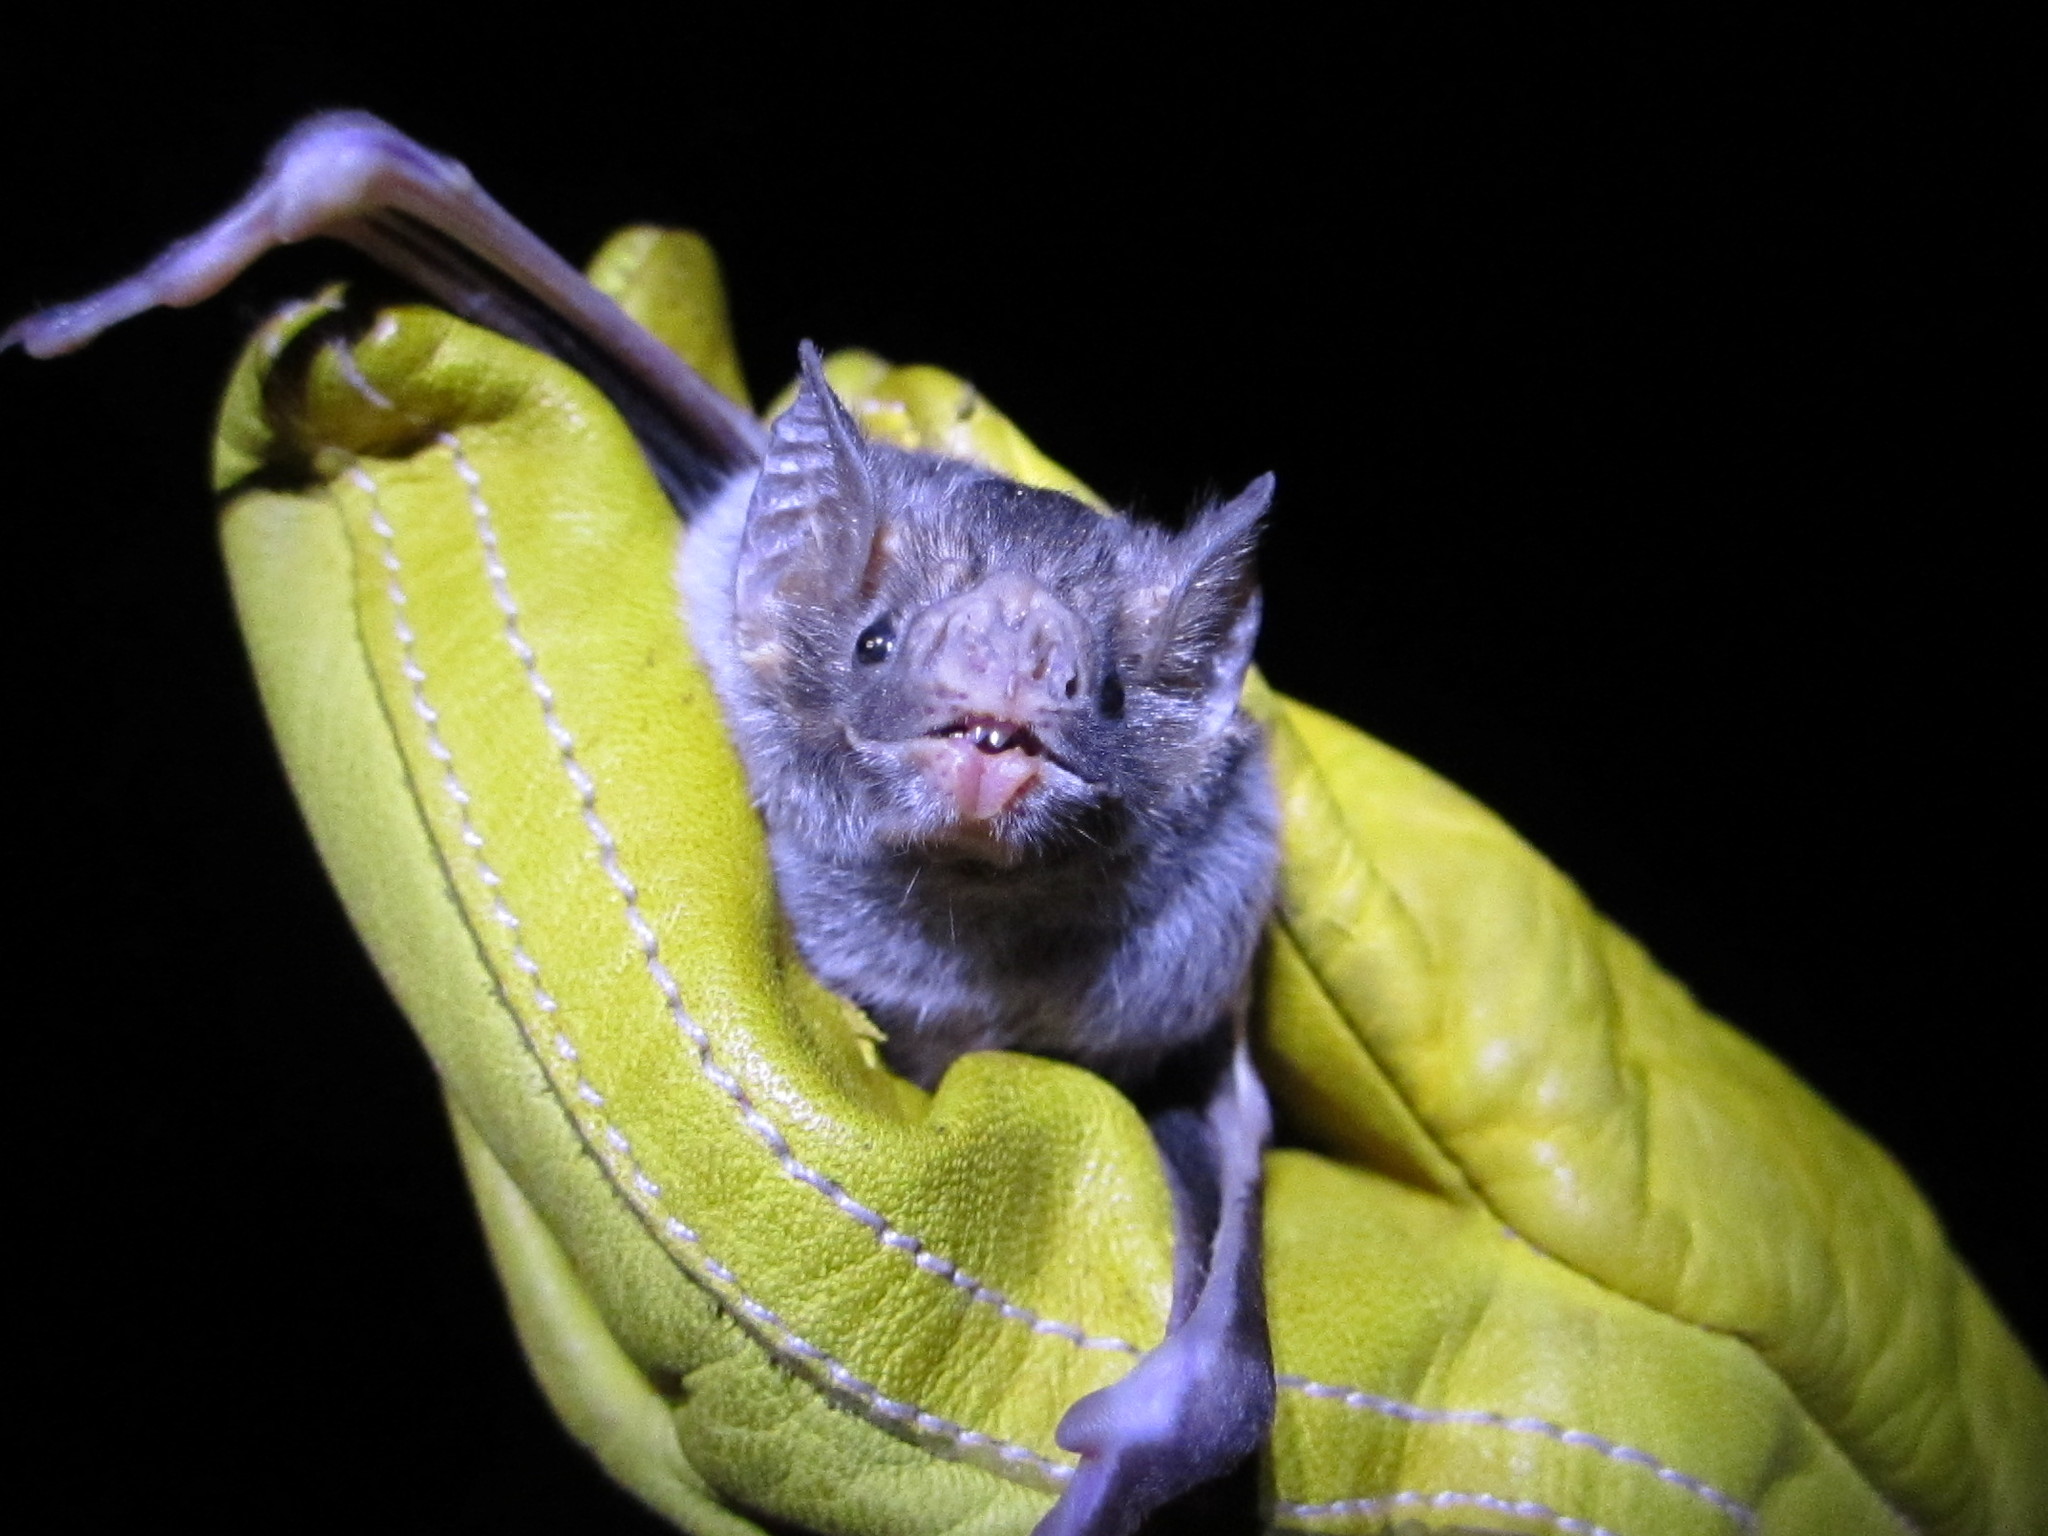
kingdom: Animalia
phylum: Chordata
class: Mammalia
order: Chiroptera
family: Phyllostomidae
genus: Desmodus
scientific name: Desmodus rotundus
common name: Common vampire bat
